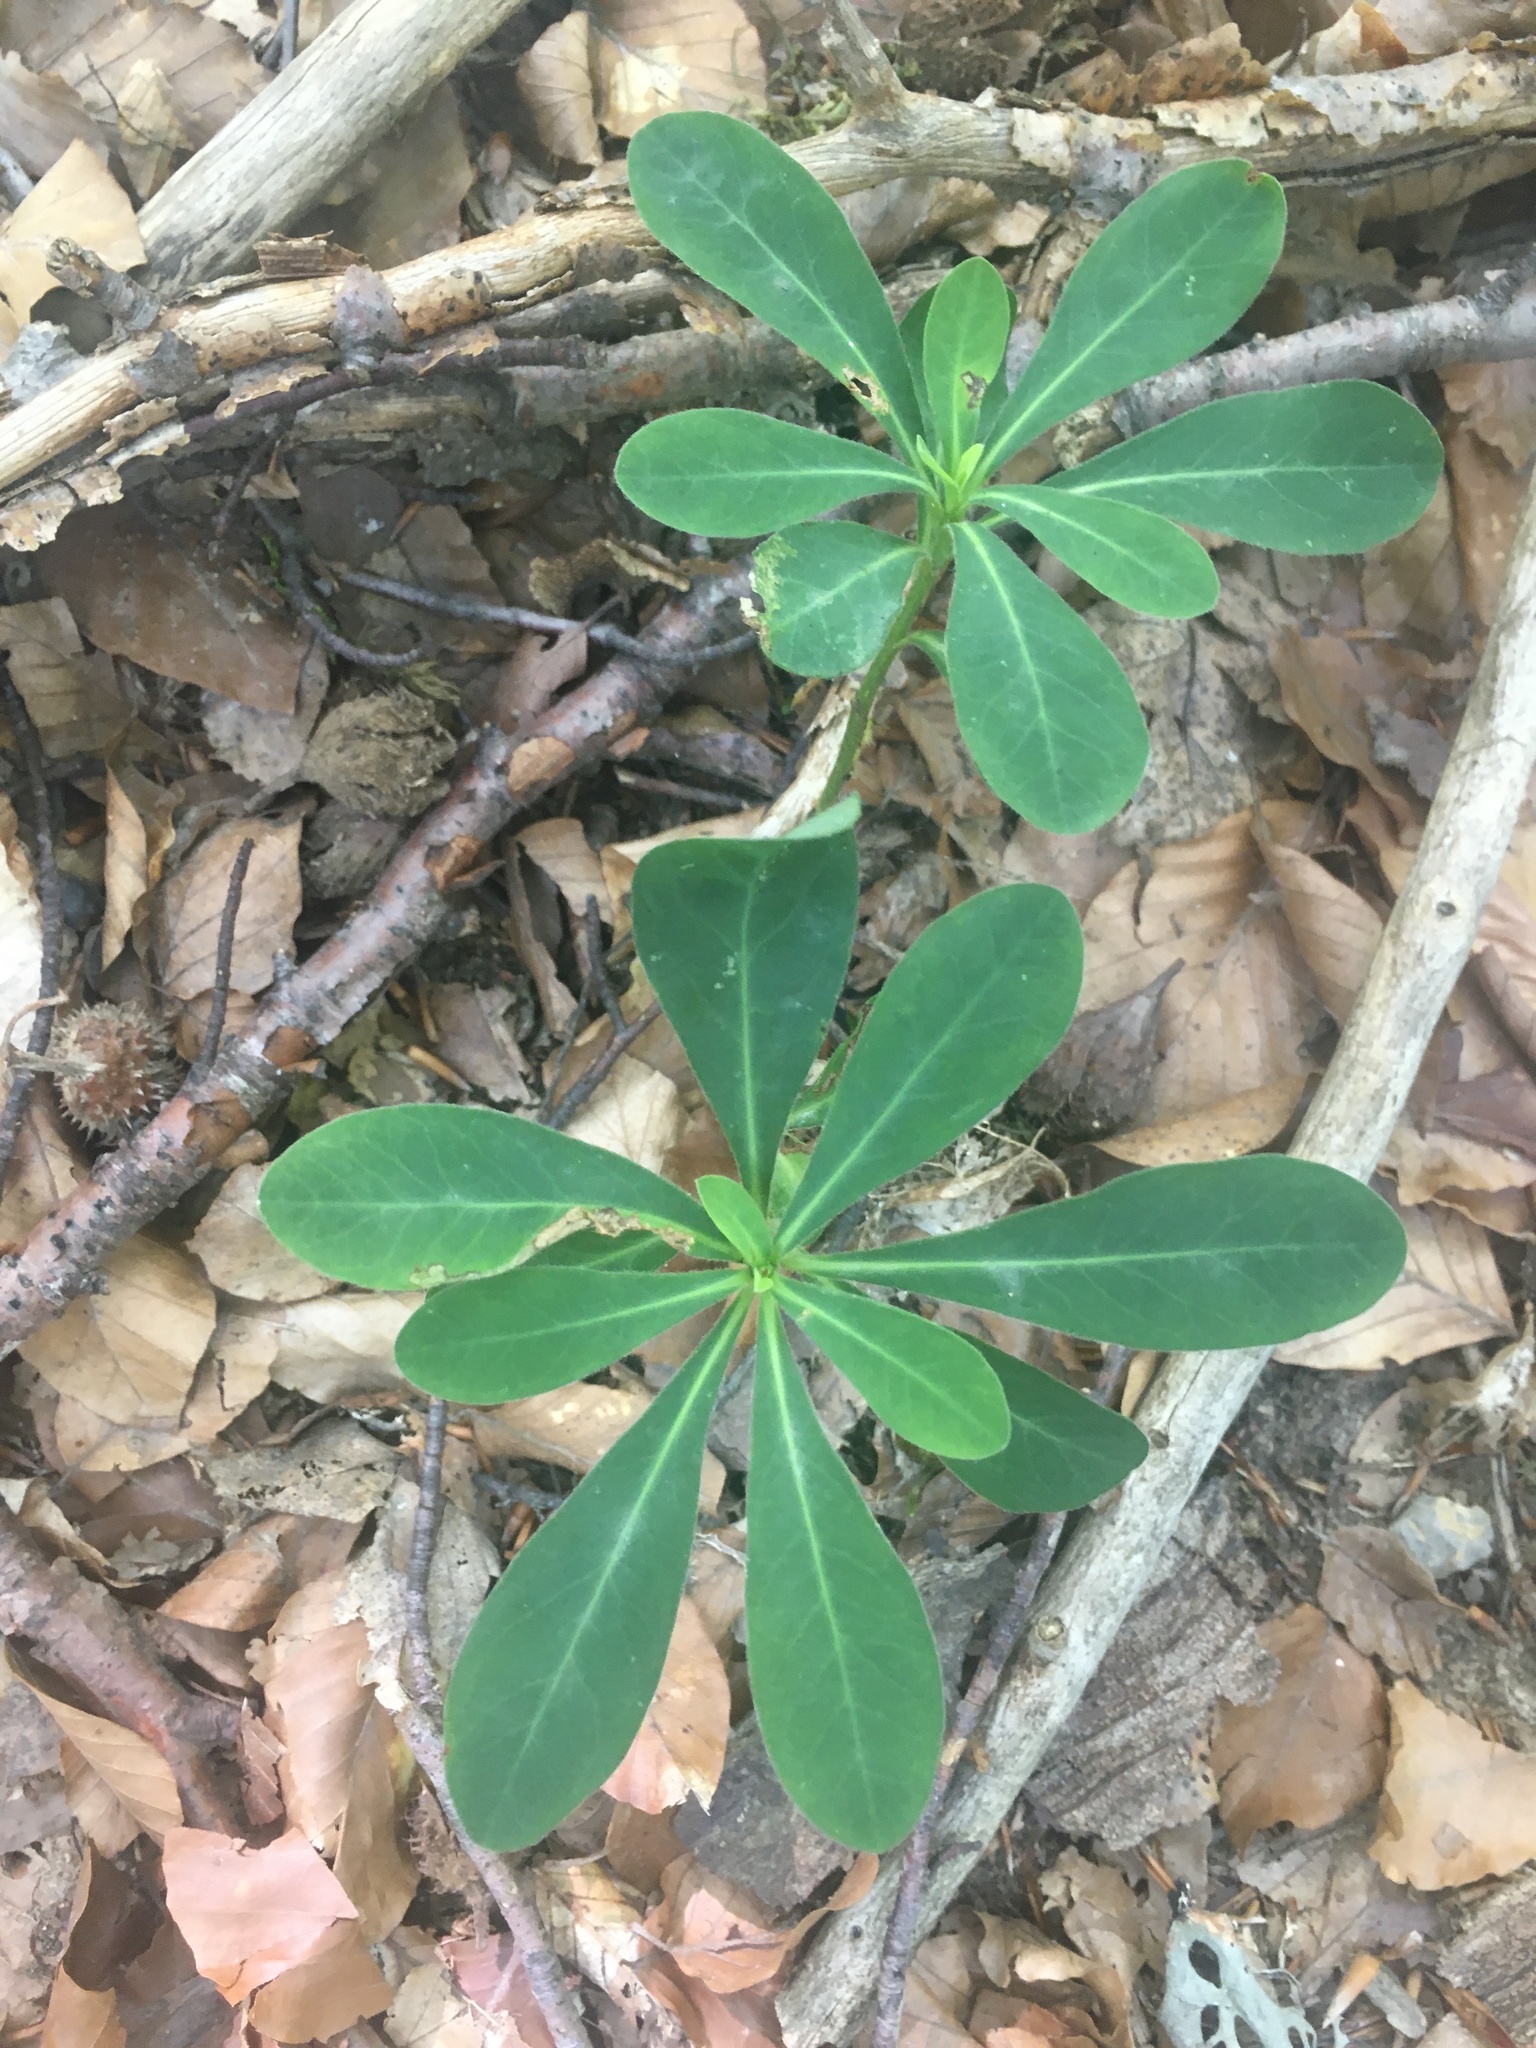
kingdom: Plantae
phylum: Tracheophyta
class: Magnoliopsida
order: Malpighiales
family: Euphorbiaceae
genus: Euphorbia
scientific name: Euphorbia amygdaloides
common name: Wood spurge
